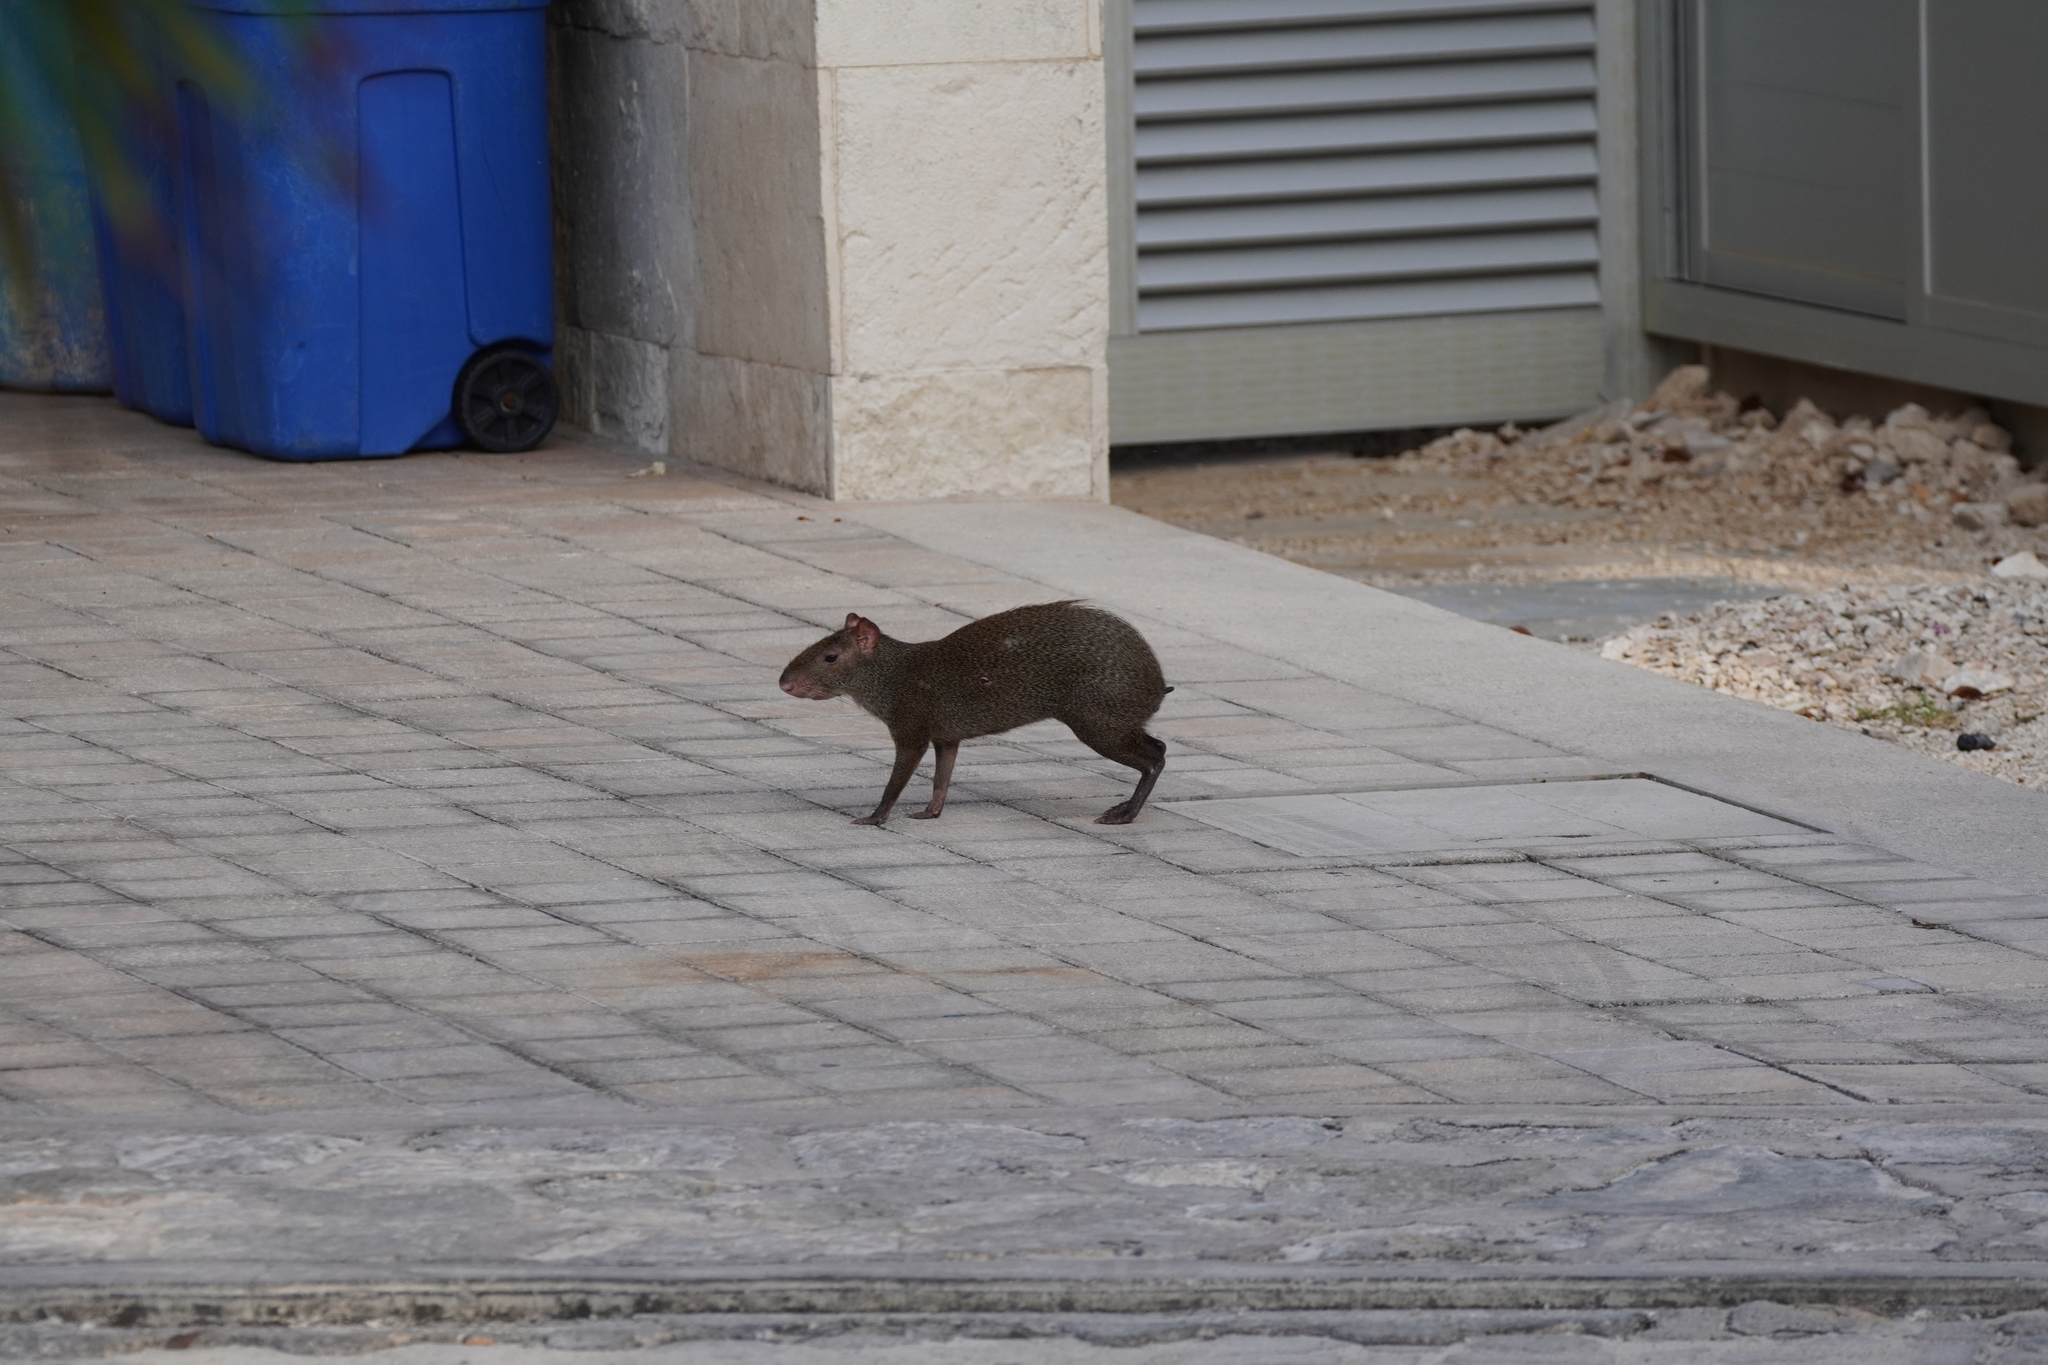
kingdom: Animalia
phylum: Chordata
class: Mammalia
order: Rodentia
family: Dasyproctidae
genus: Dasyprocta
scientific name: Dasyprocta punctata
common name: Central american agouti
